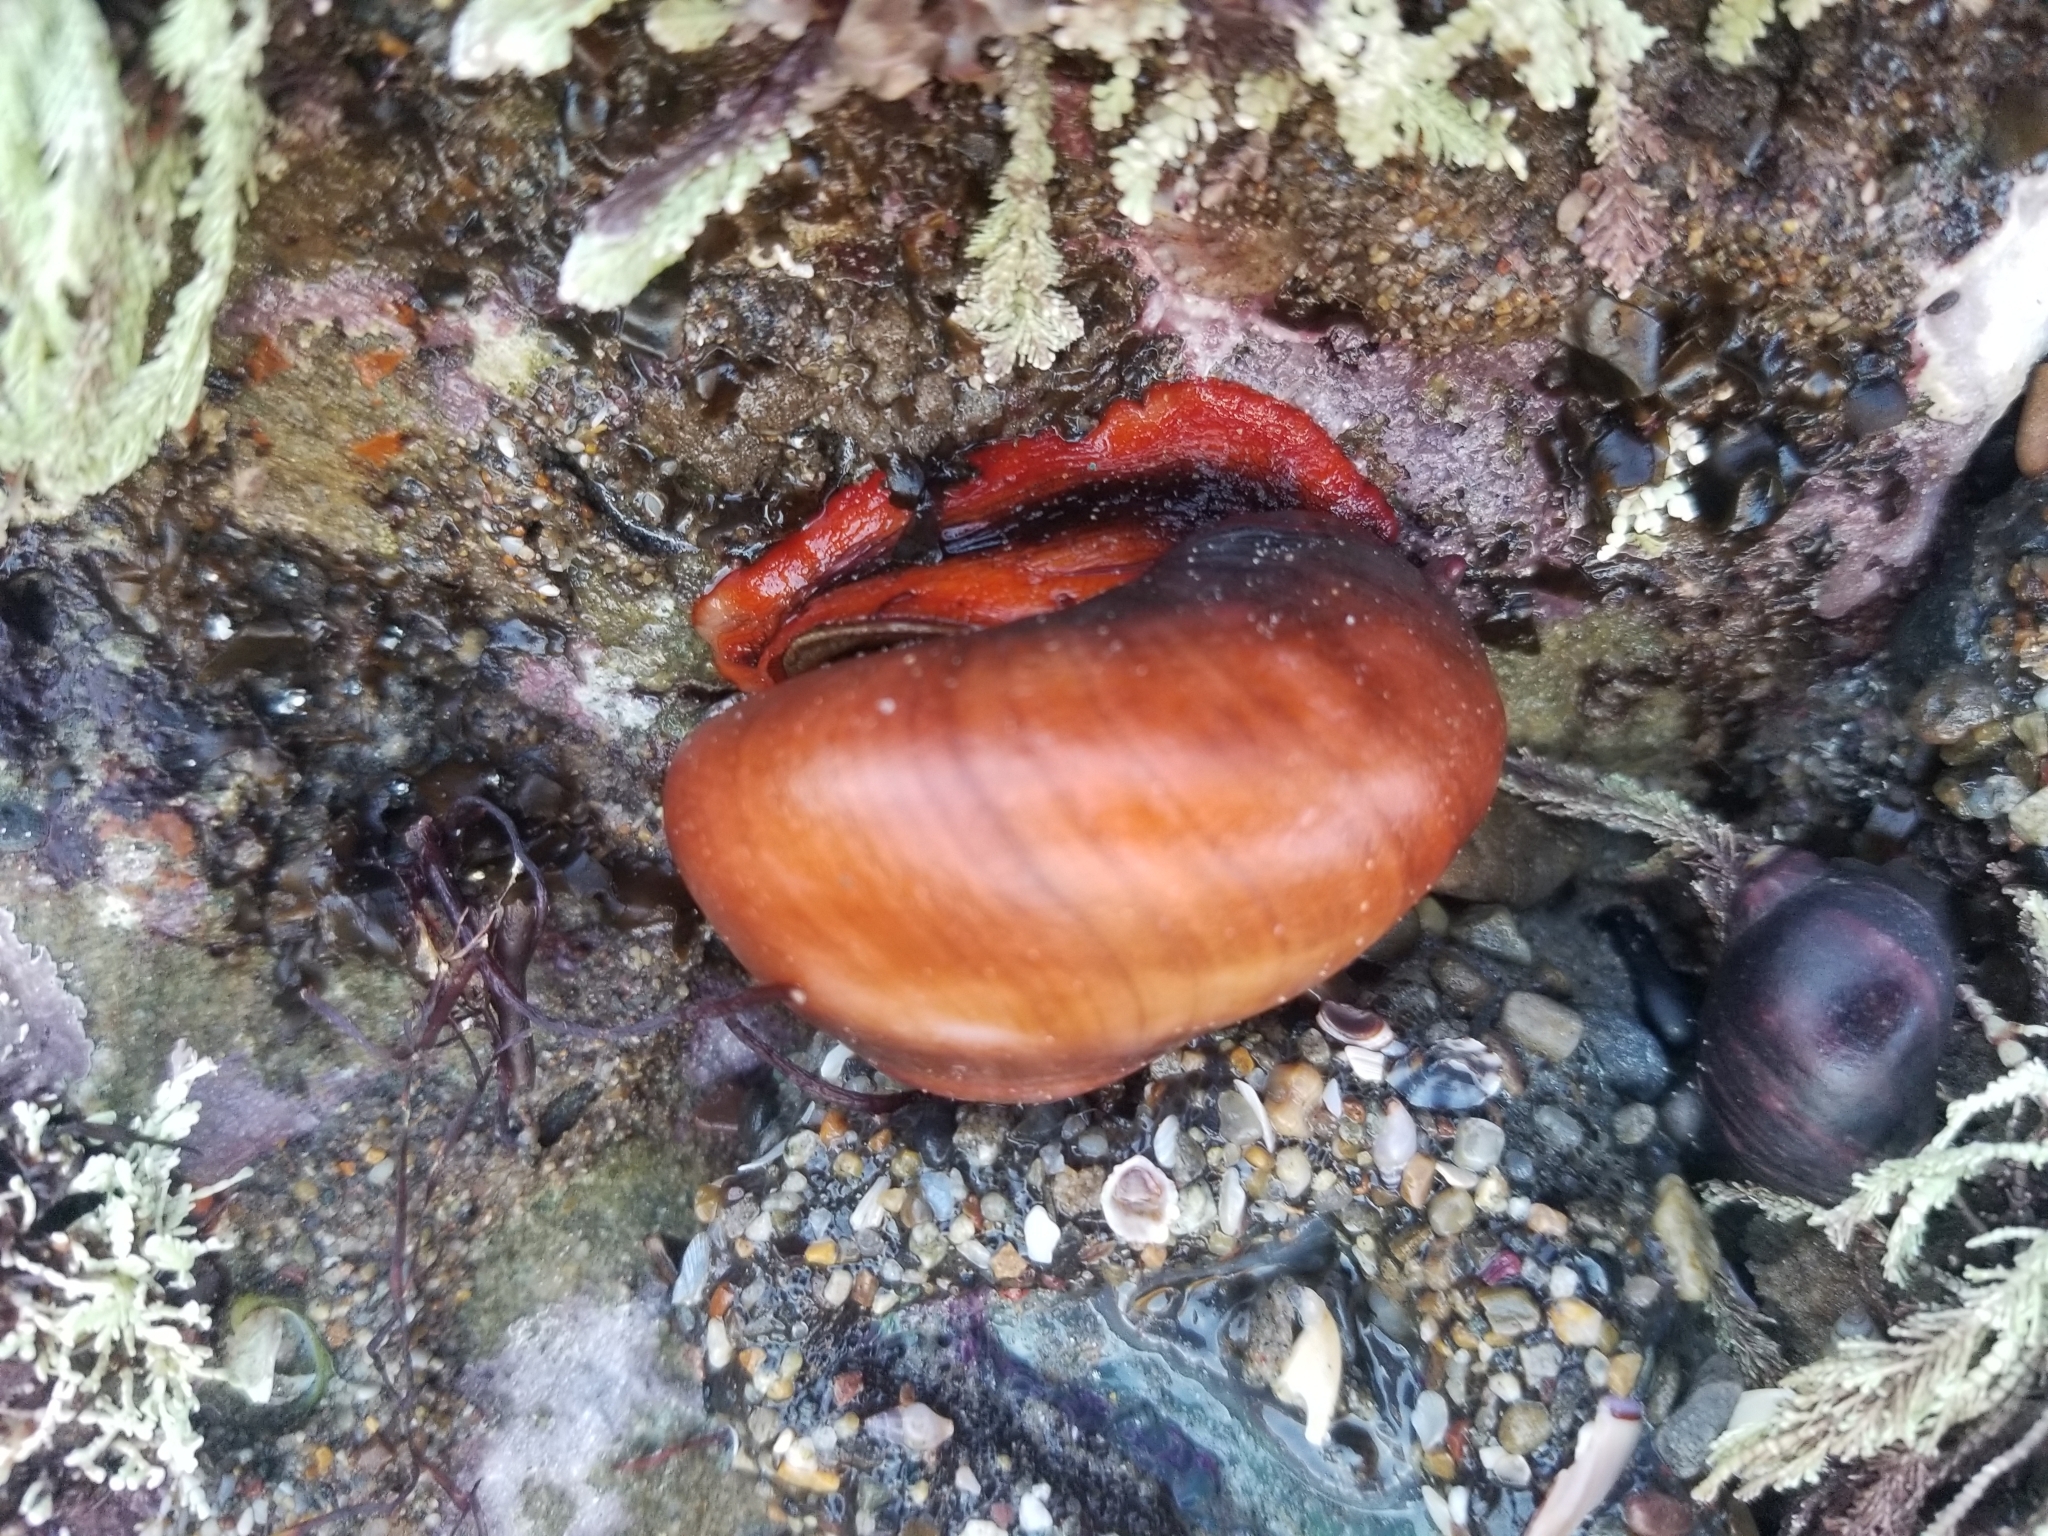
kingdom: Animalia
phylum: Mollusca
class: Gastropoda
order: Trochida
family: Tegulidae
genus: Norrisia
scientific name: Norrisia norrisii
